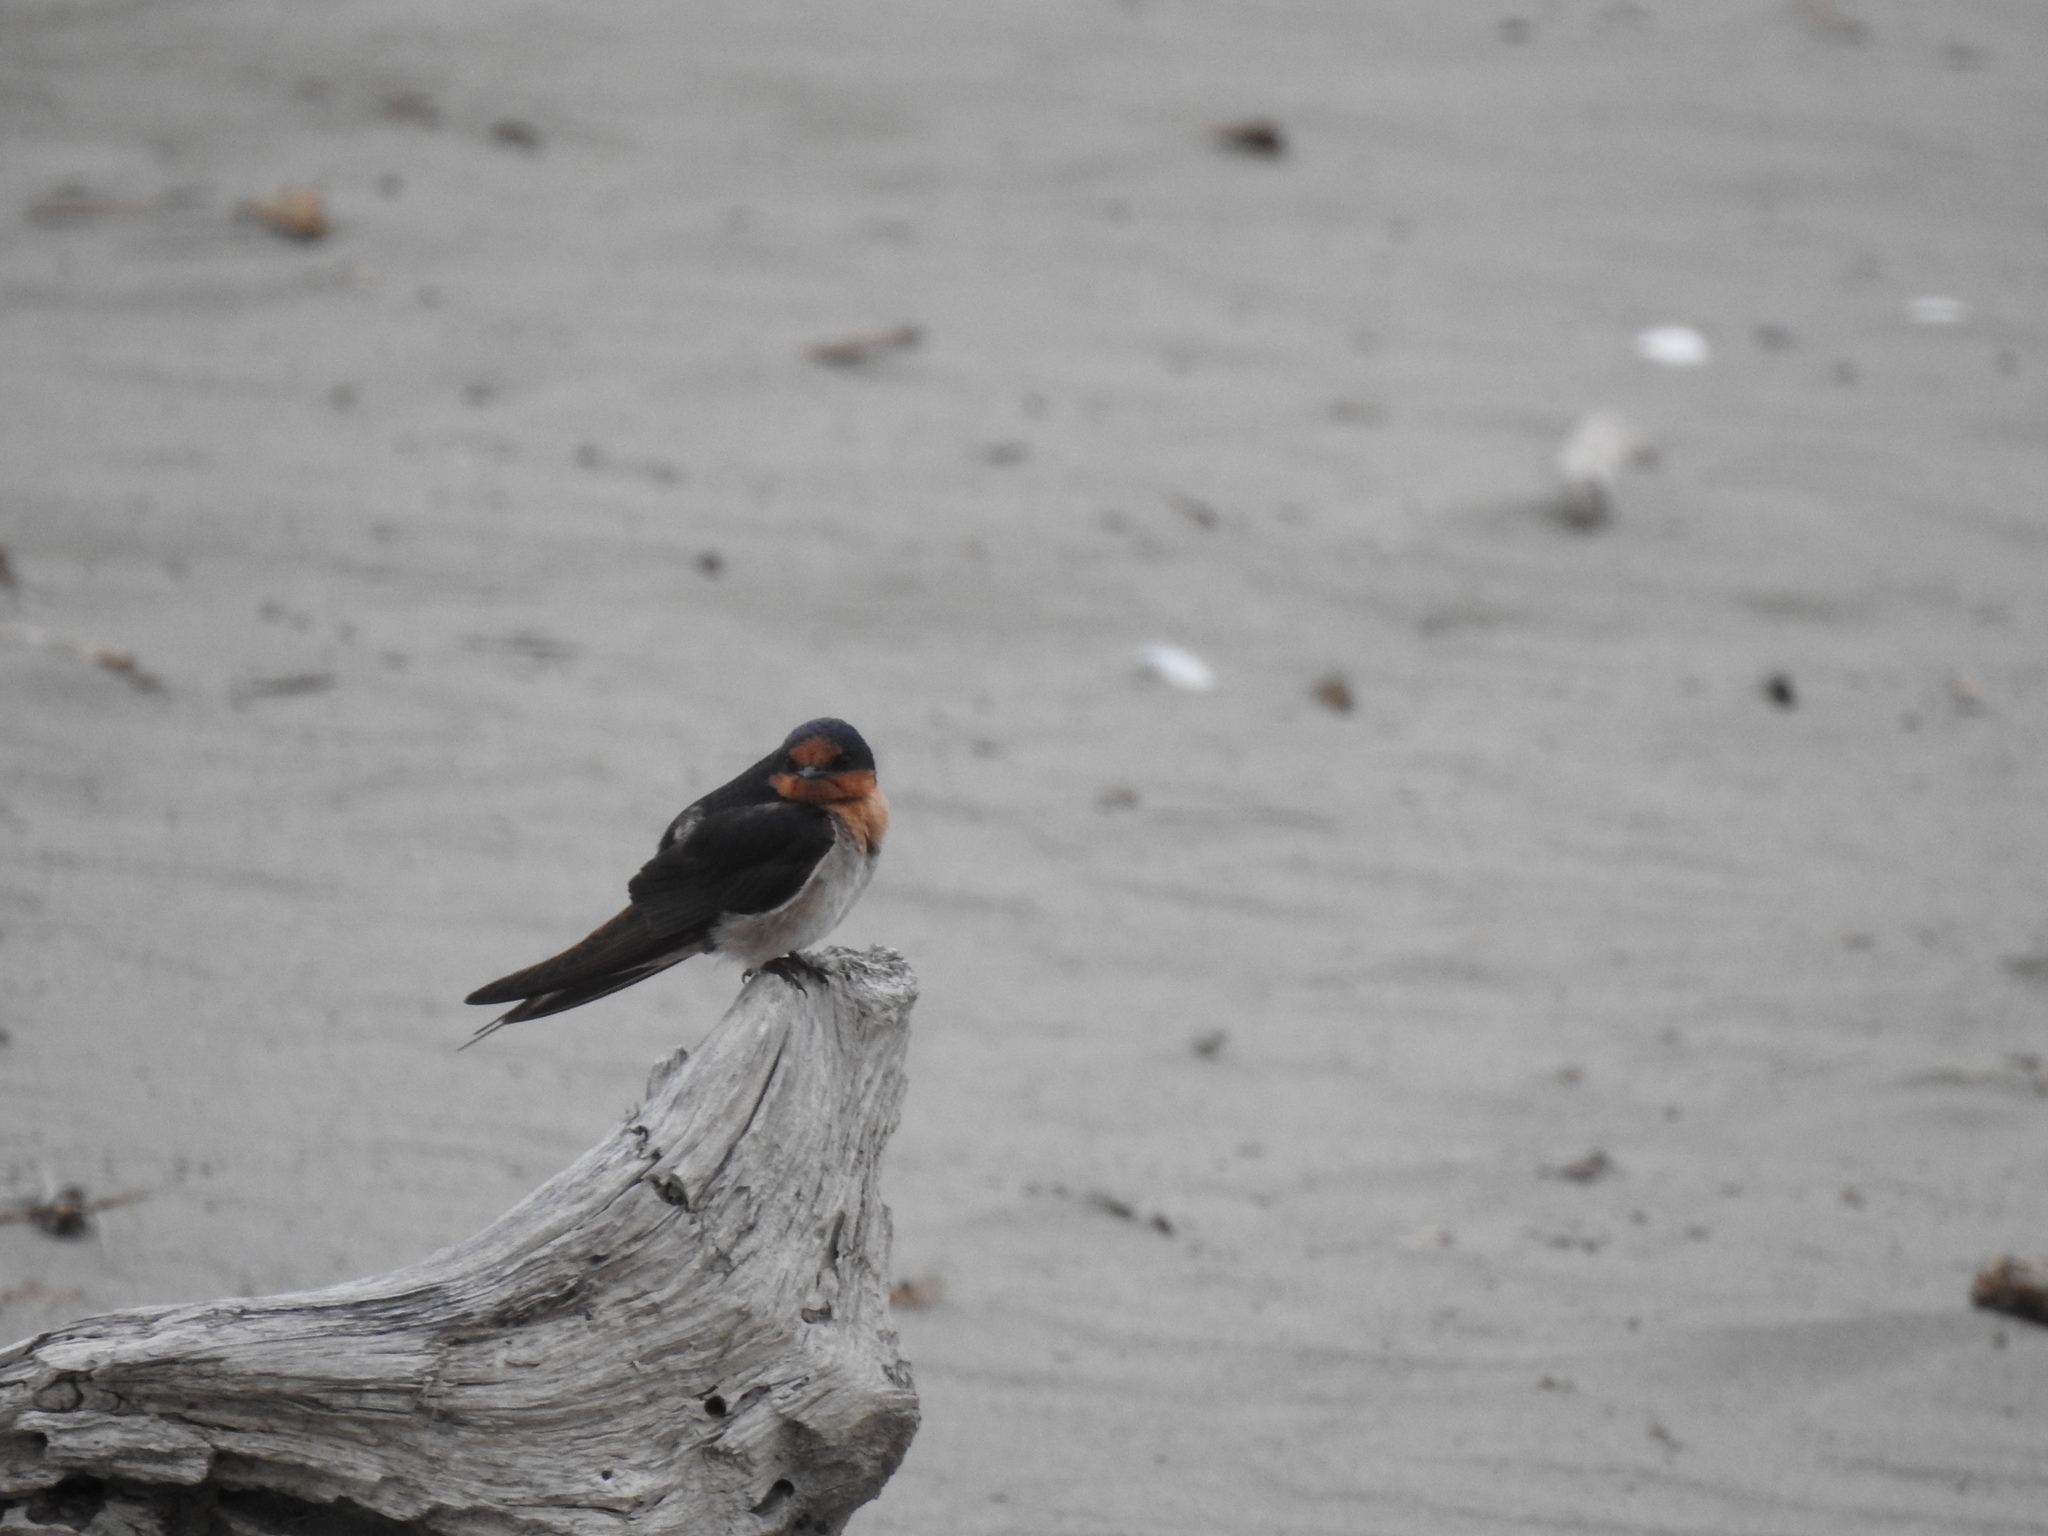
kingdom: Animalia
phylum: Chordata
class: Aves
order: Passeriformes
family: Hirundinidae
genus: Hirundo
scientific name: Hirundo neoxena
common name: Welcome swallow
